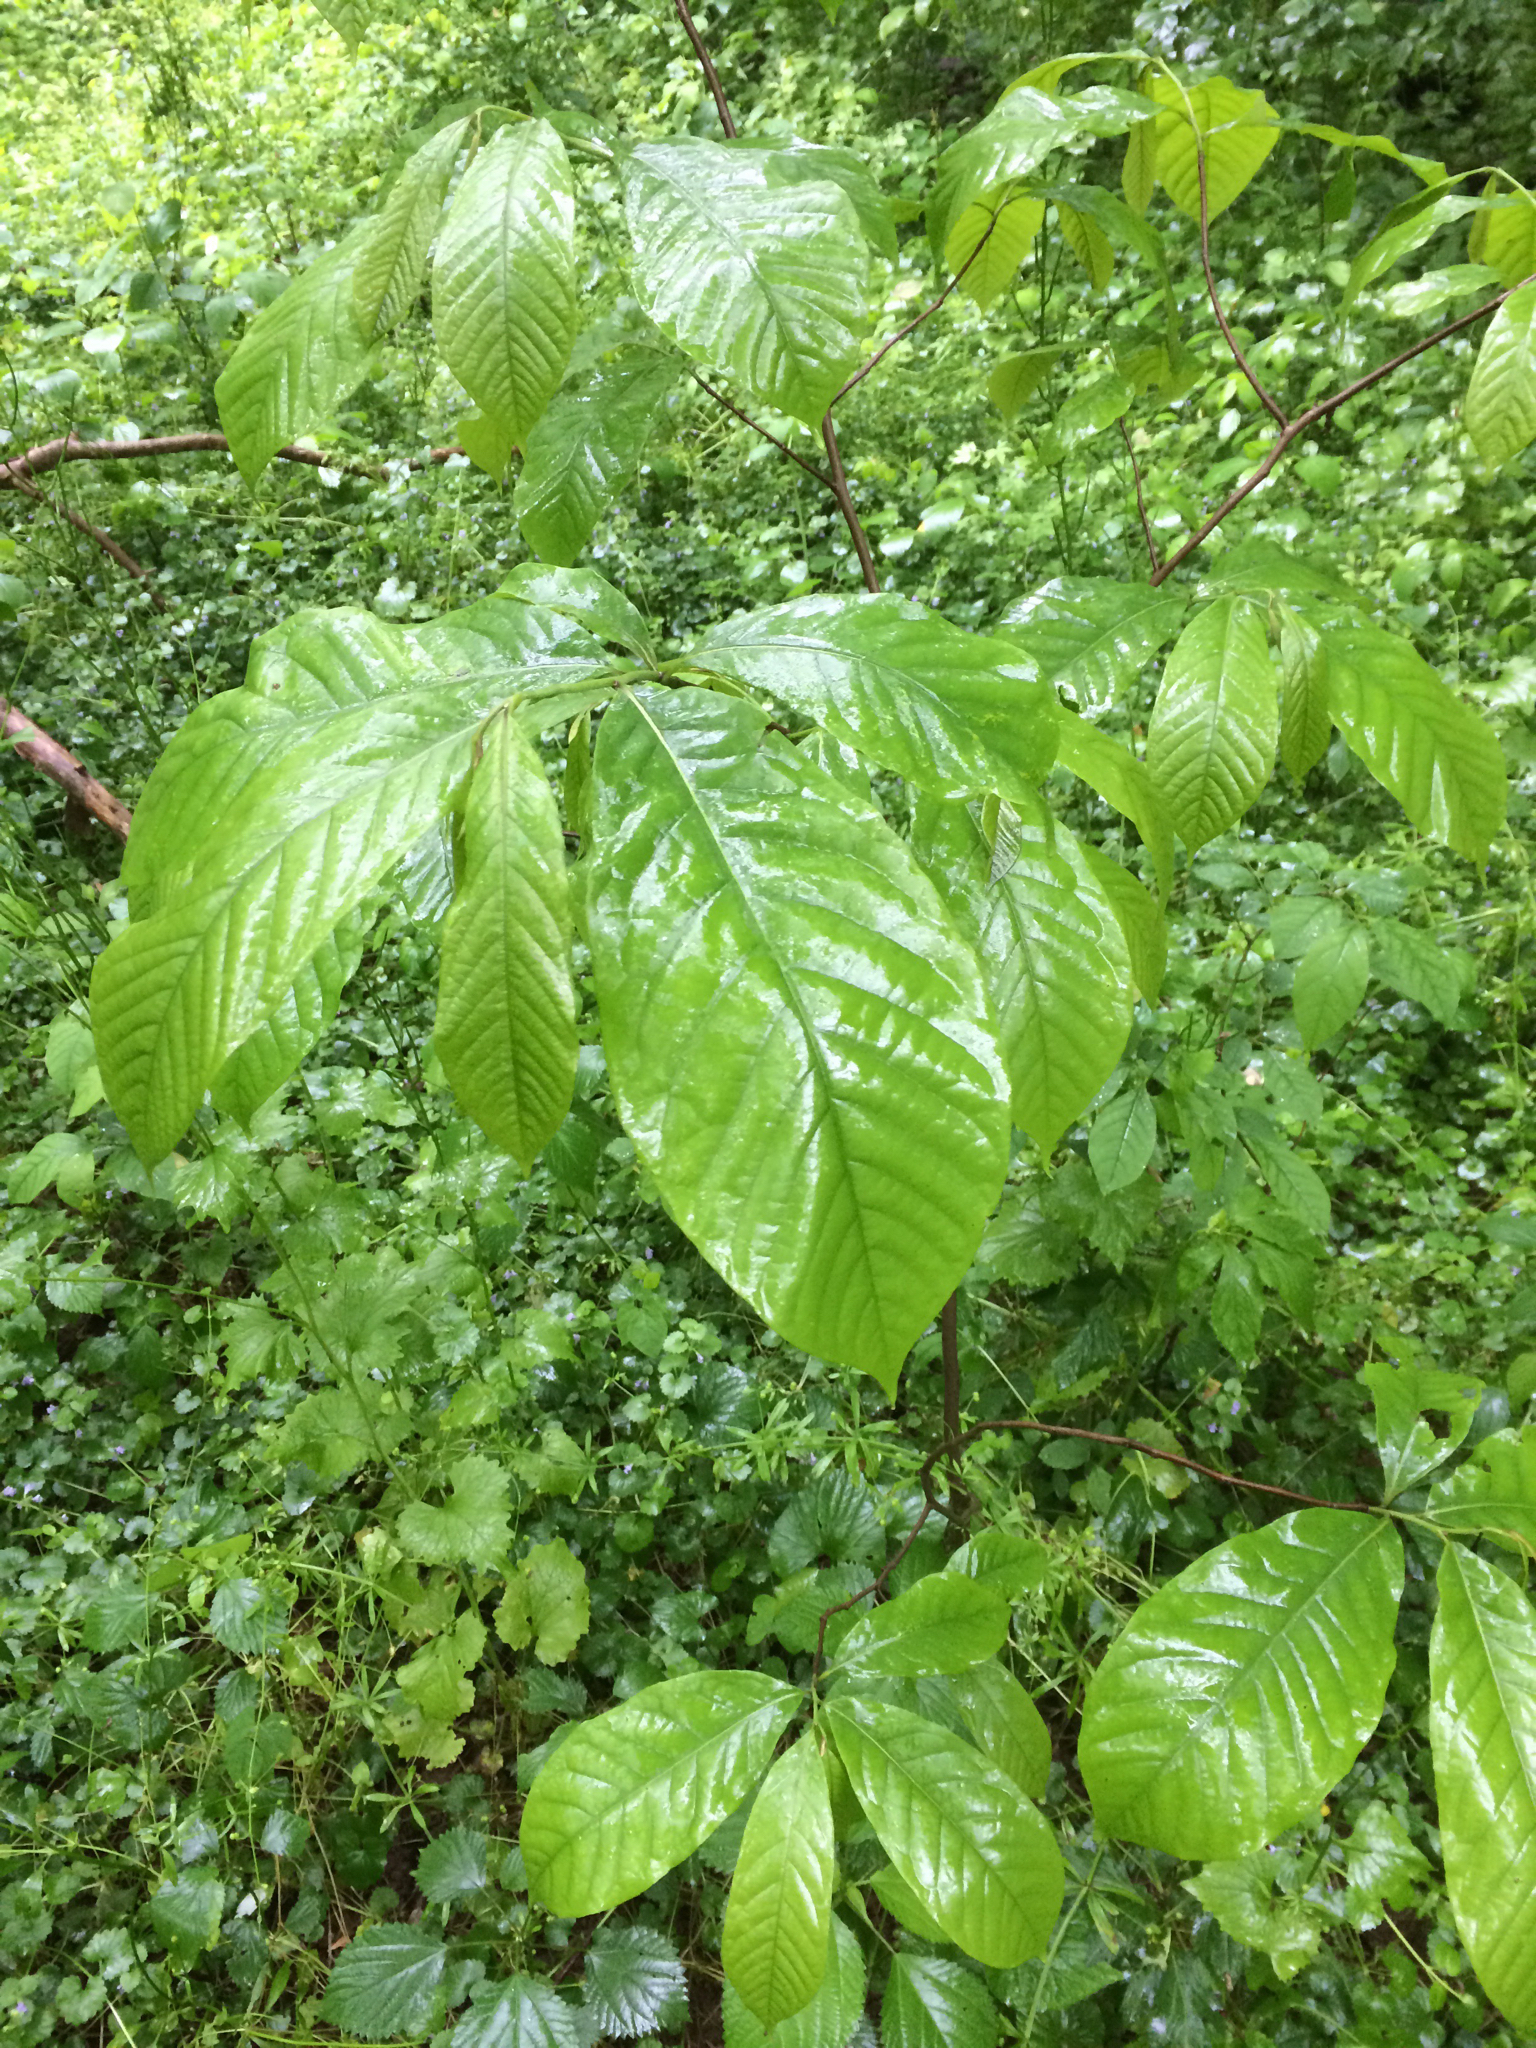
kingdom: Plantae
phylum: Tracheophyta
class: Magnoliopsida
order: Magnoliales
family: Annonaceae
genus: Asimina
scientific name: Asimina triloba
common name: Dog-banana
